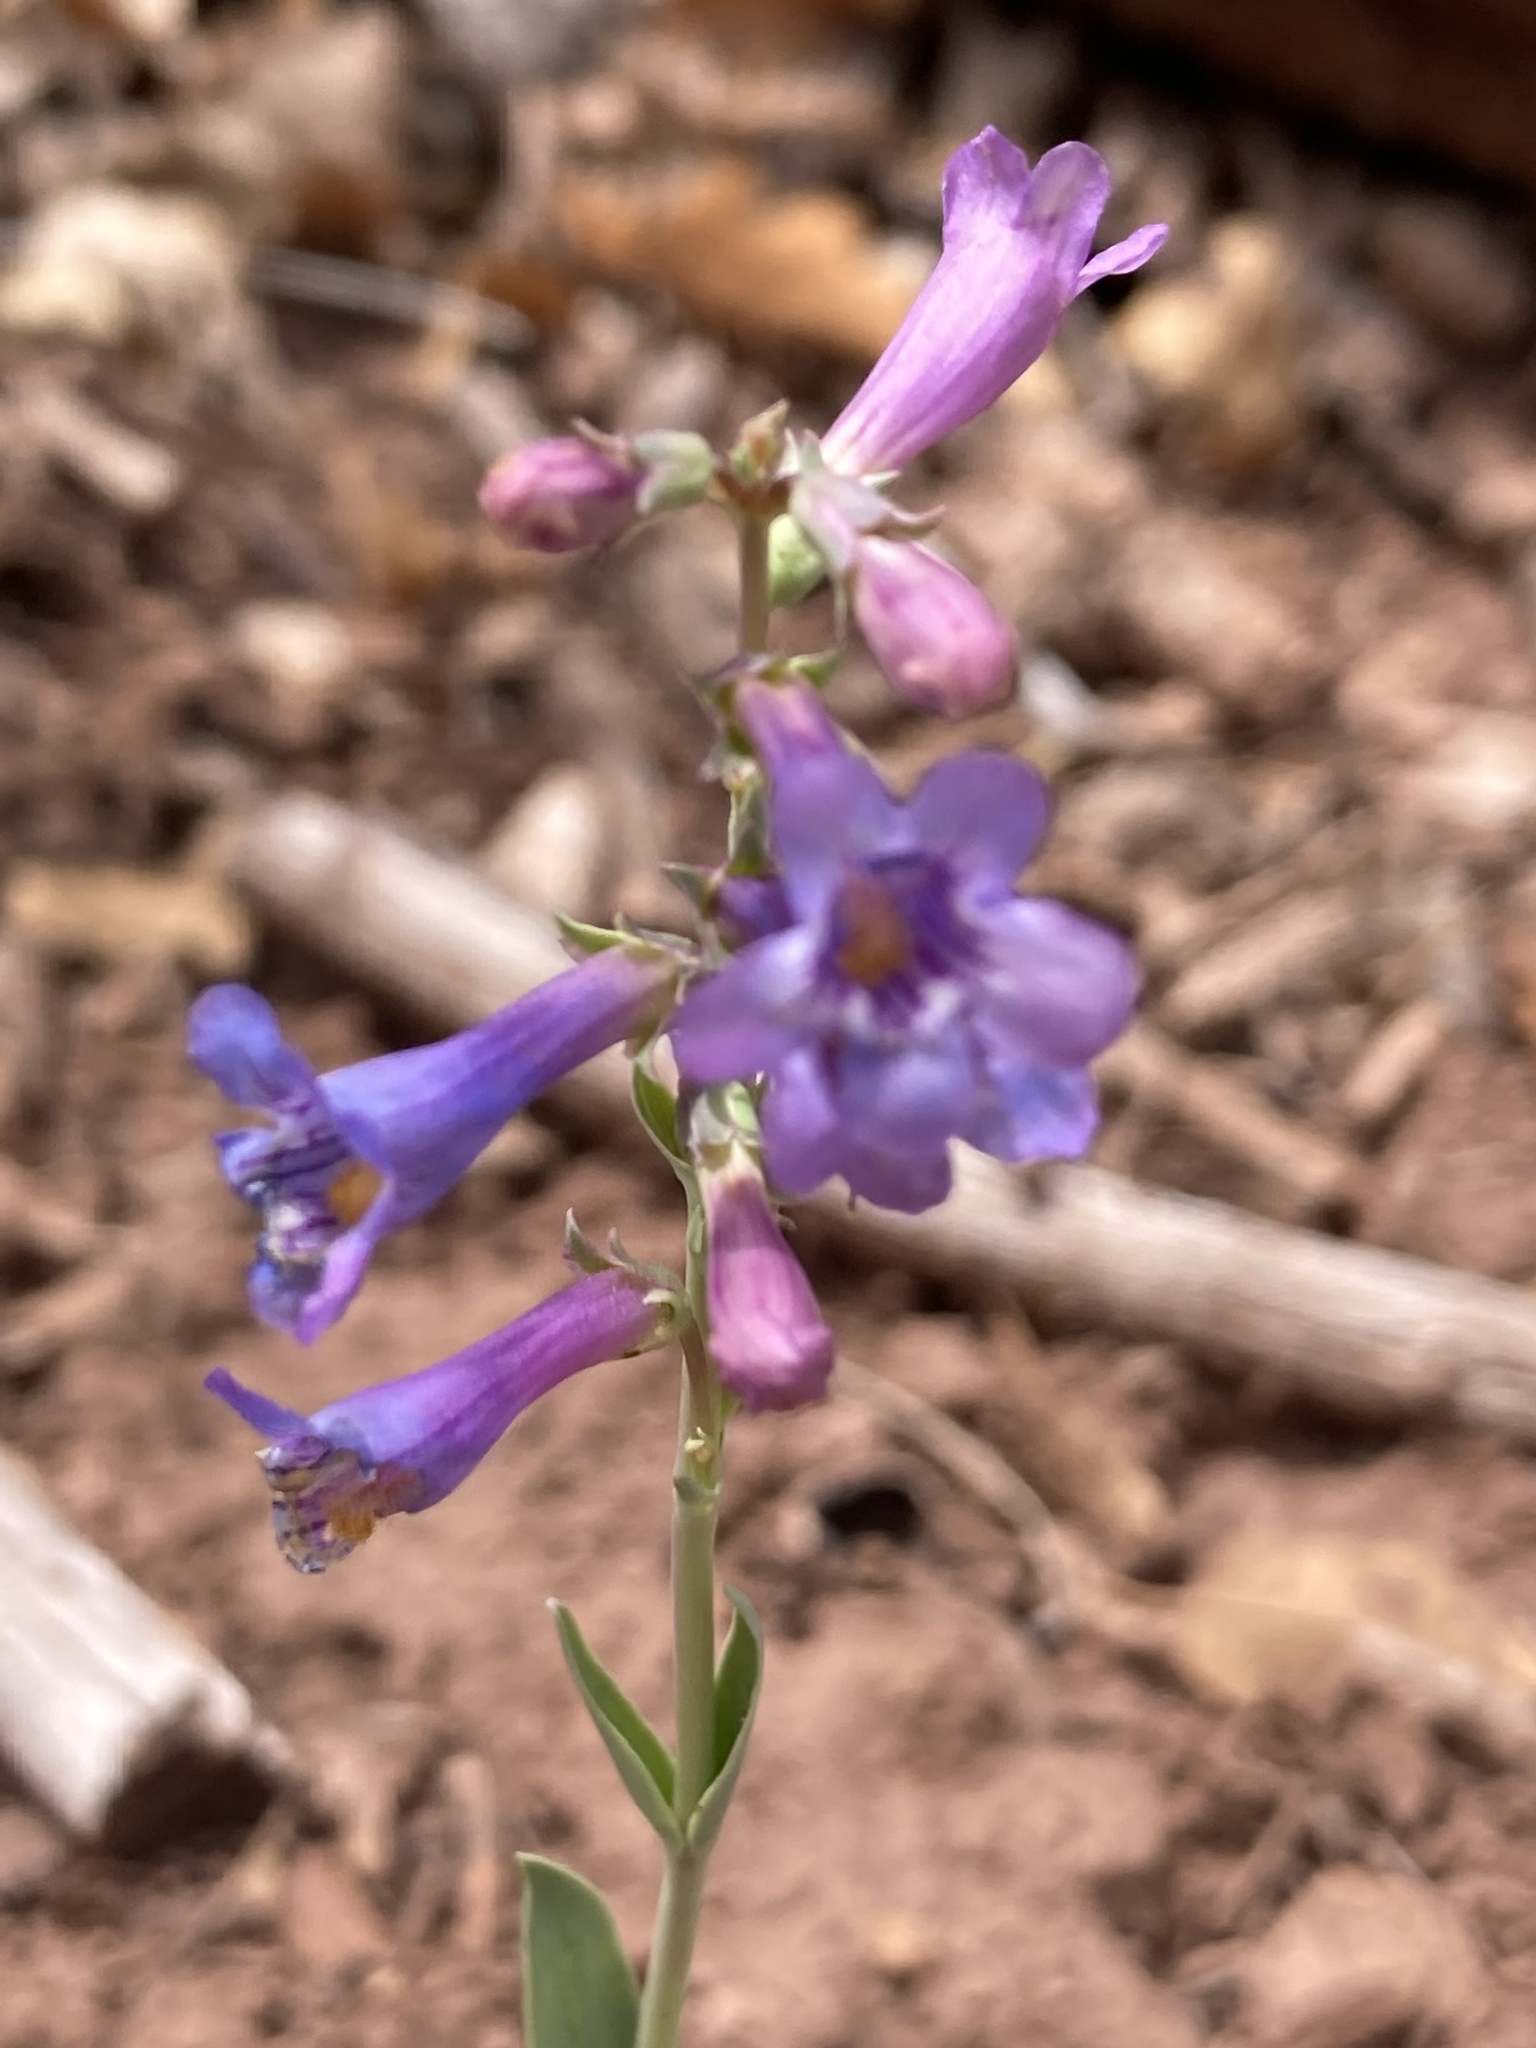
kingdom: Plantae
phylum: Tracheophyta
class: Magnoliopsida
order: Lamiales
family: Plantaginaceae
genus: Penstemon
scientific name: Penstemon secundiflorus
